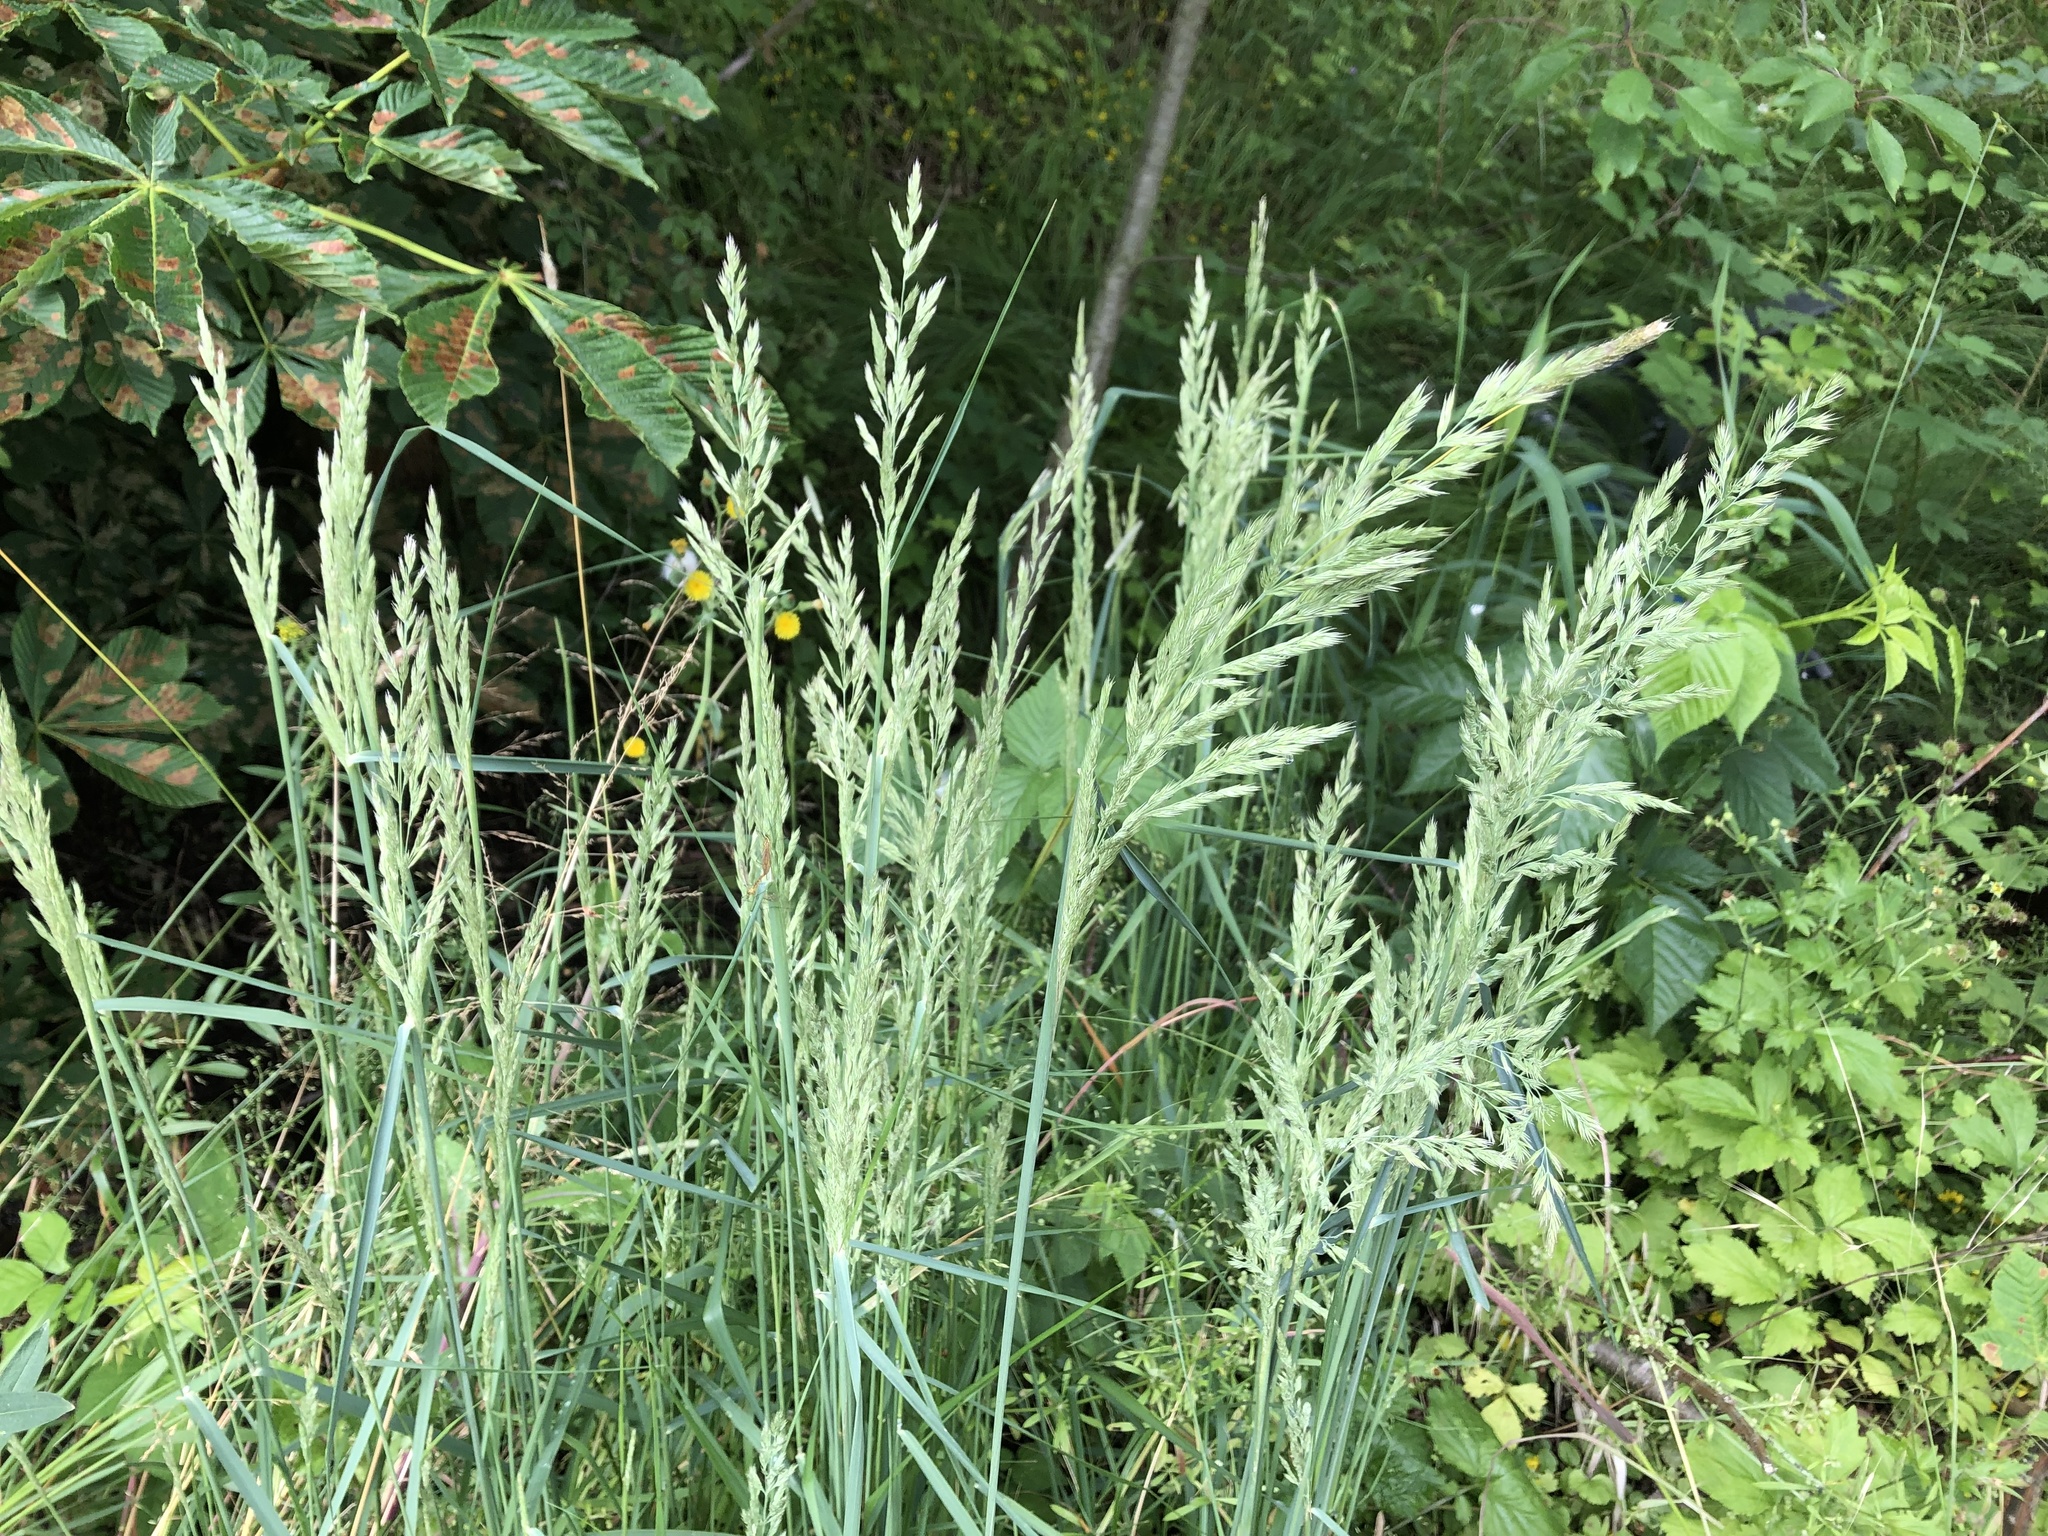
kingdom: Plantae
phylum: Tracheophyta
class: Liliopsida
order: Poales
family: Poaceae
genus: Calamagrostis
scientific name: Calamagrostis epigejos
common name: Wood small-reed
